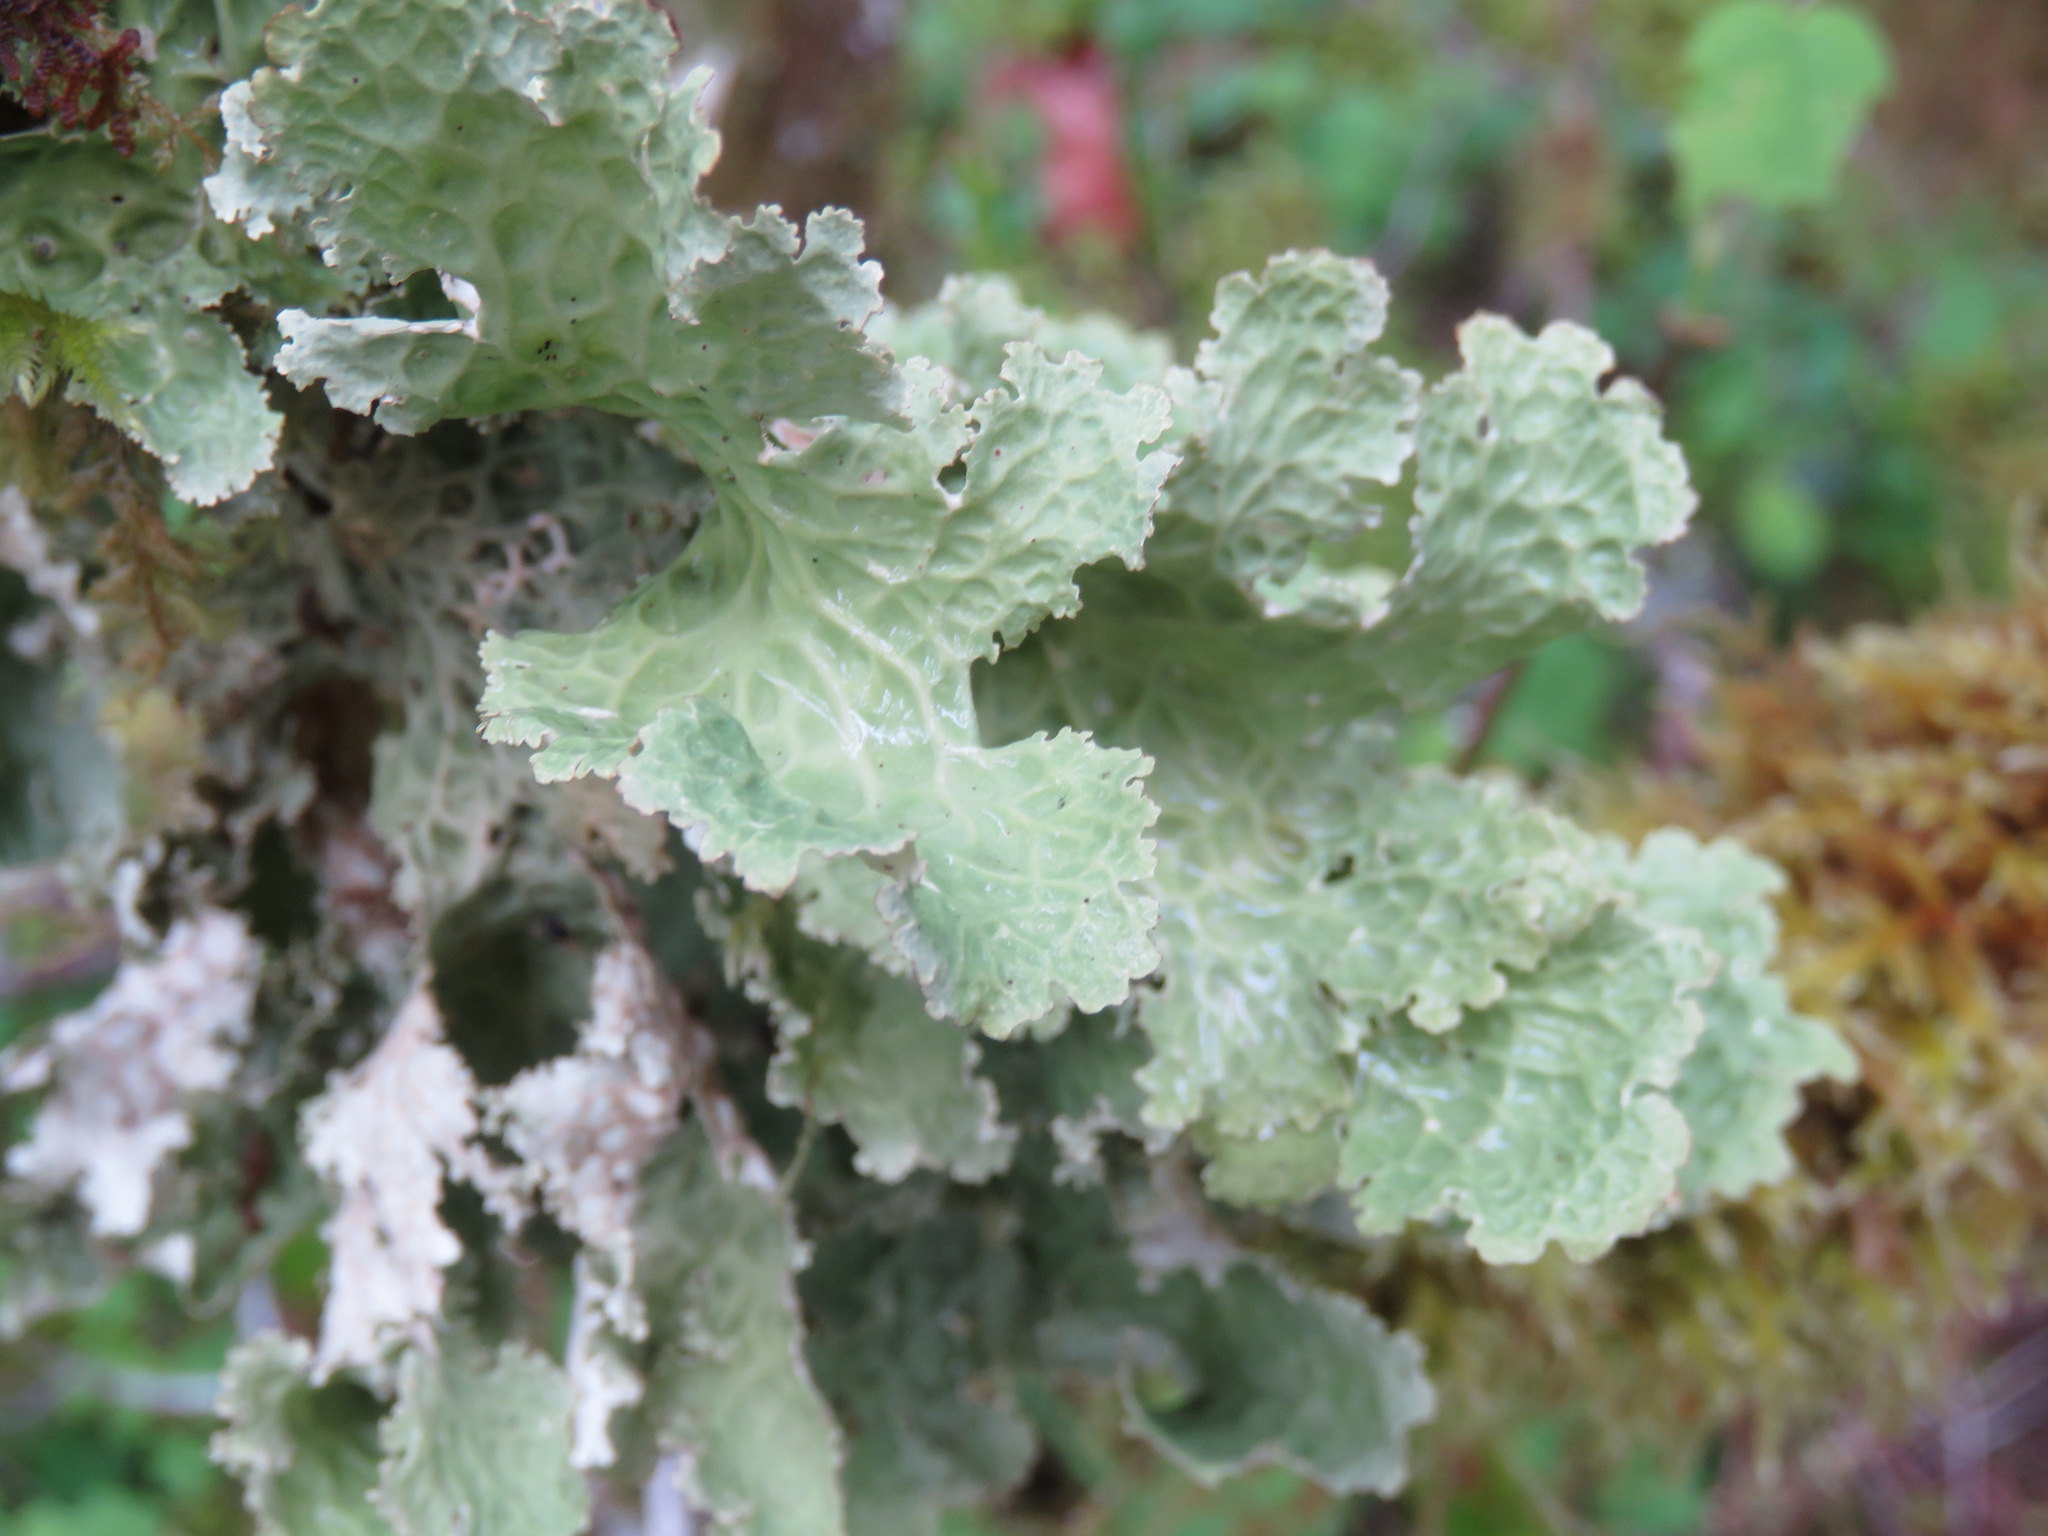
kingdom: Fungi
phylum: Ascomycota
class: Lecanoromycetes
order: Peltigerales
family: Lobariaceae
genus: Lobaria
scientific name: Lobaria oregana
